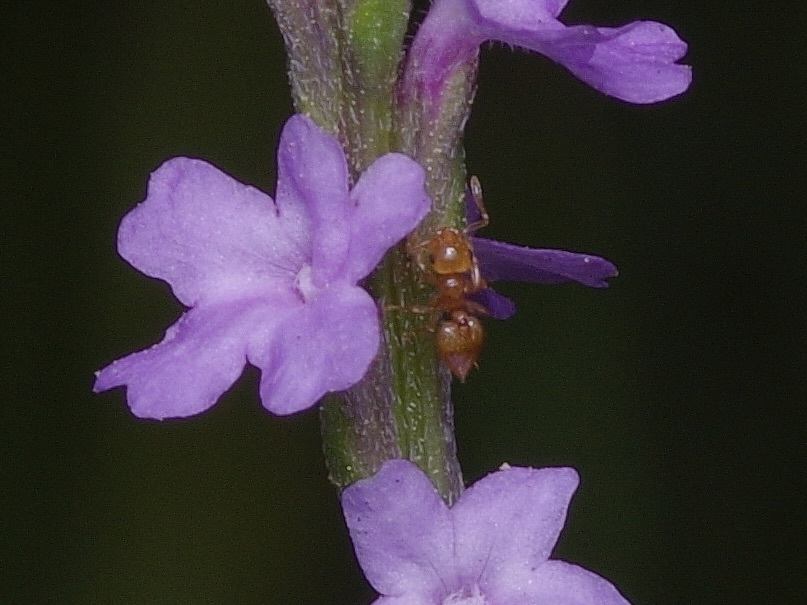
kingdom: Animalia
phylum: Arthropoda
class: Insecta
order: Hymenoptera
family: Formicidae
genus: Crematogaster
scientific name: Crematogaster minutissima
